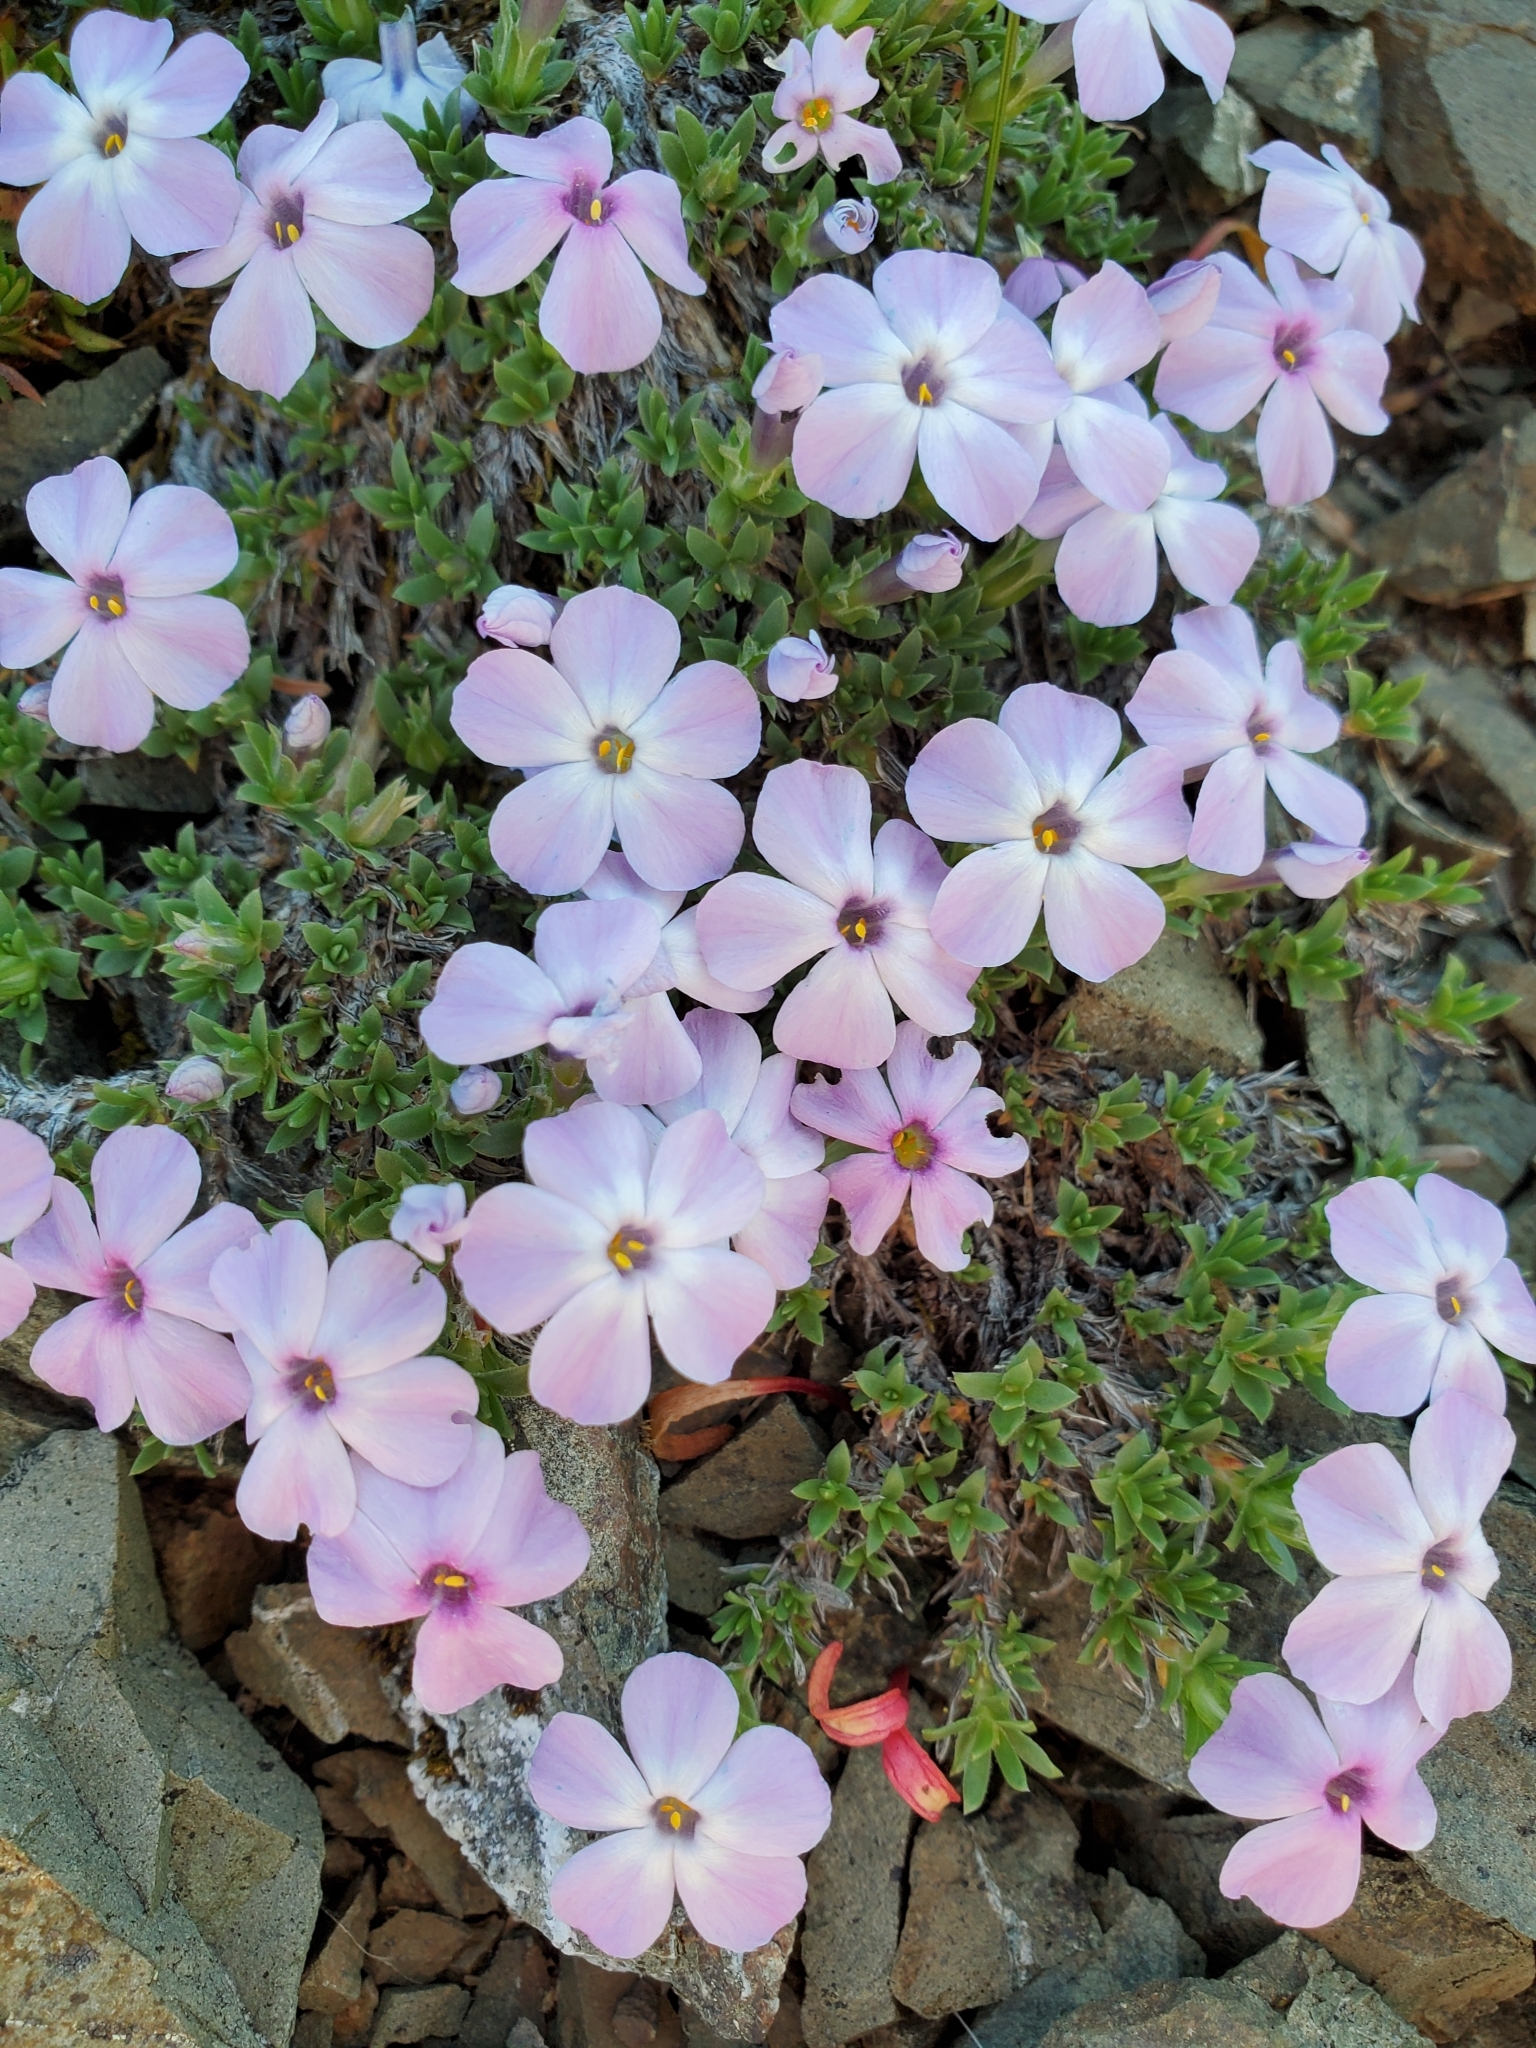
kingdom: Plantae
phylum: Tracheophyta
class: Magnoliopsida
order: Ericales
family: Polemoniaceae
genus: Phlox
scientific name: Phlox diffusa
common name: Mat phlox
